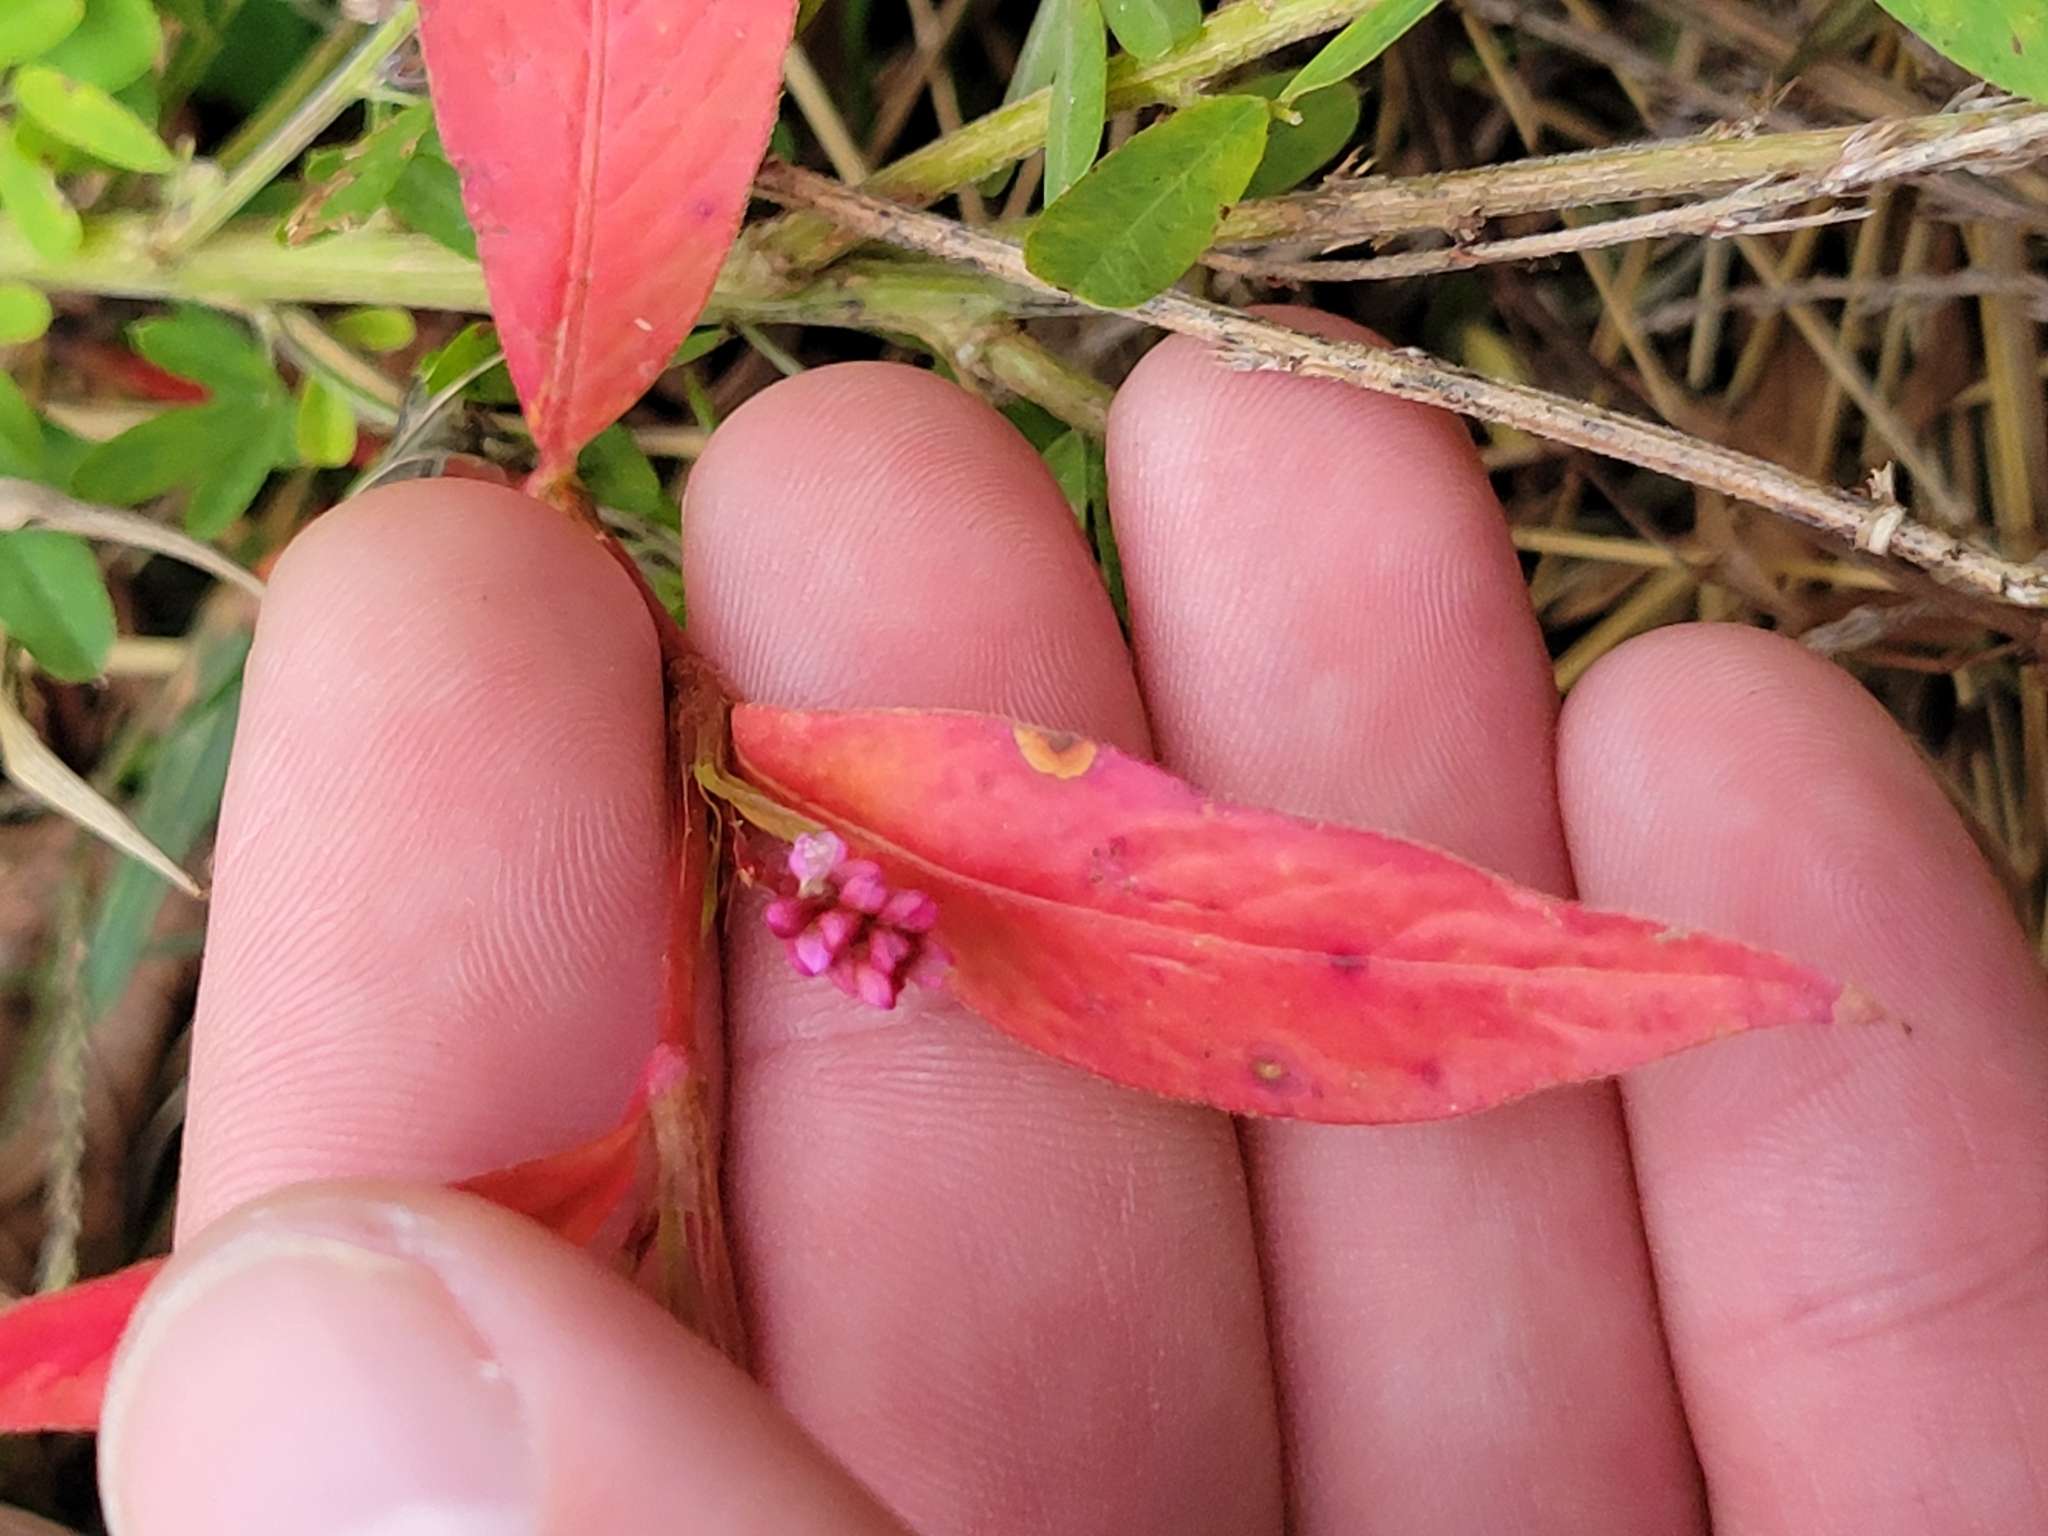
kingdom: Plantae
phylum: Tracheophyta
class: Magnoliopsida
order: Caryophyllales
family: Polygonaceae
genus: Persicaria
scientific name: Persicaria longiseta
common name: Bristly lady's-thumb
